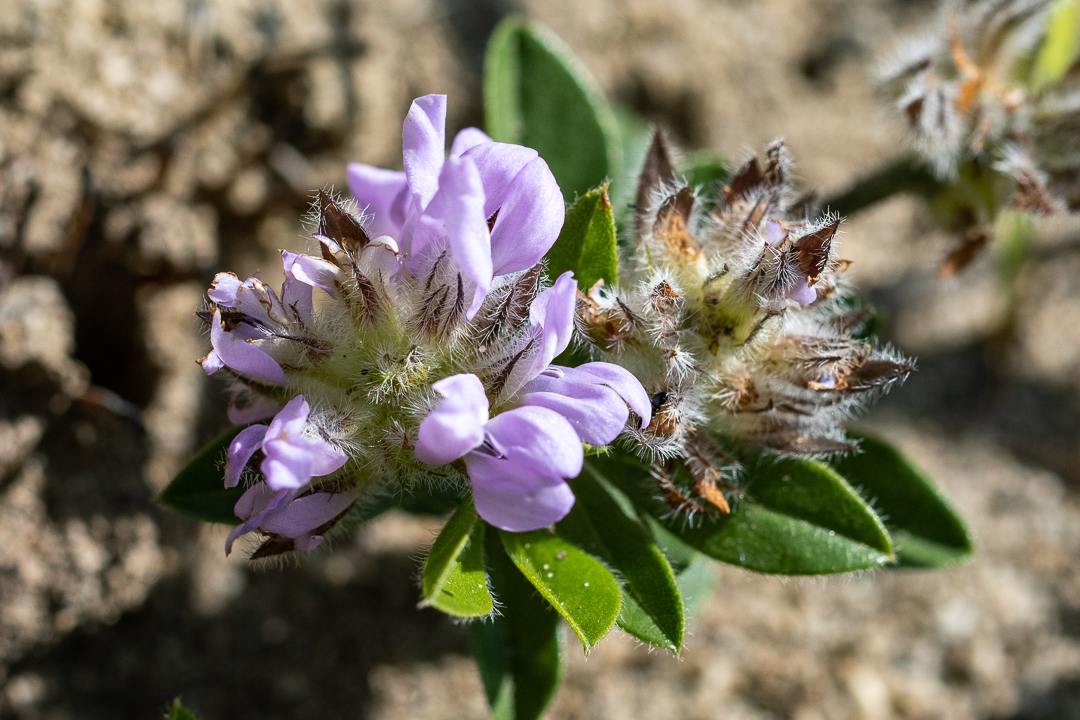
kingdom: Plantae
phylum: Tracheophyta
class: Magnoliopsida
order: Fabales
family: Fabaceae
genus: Psoralea
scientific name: Psoralea zeyheri
